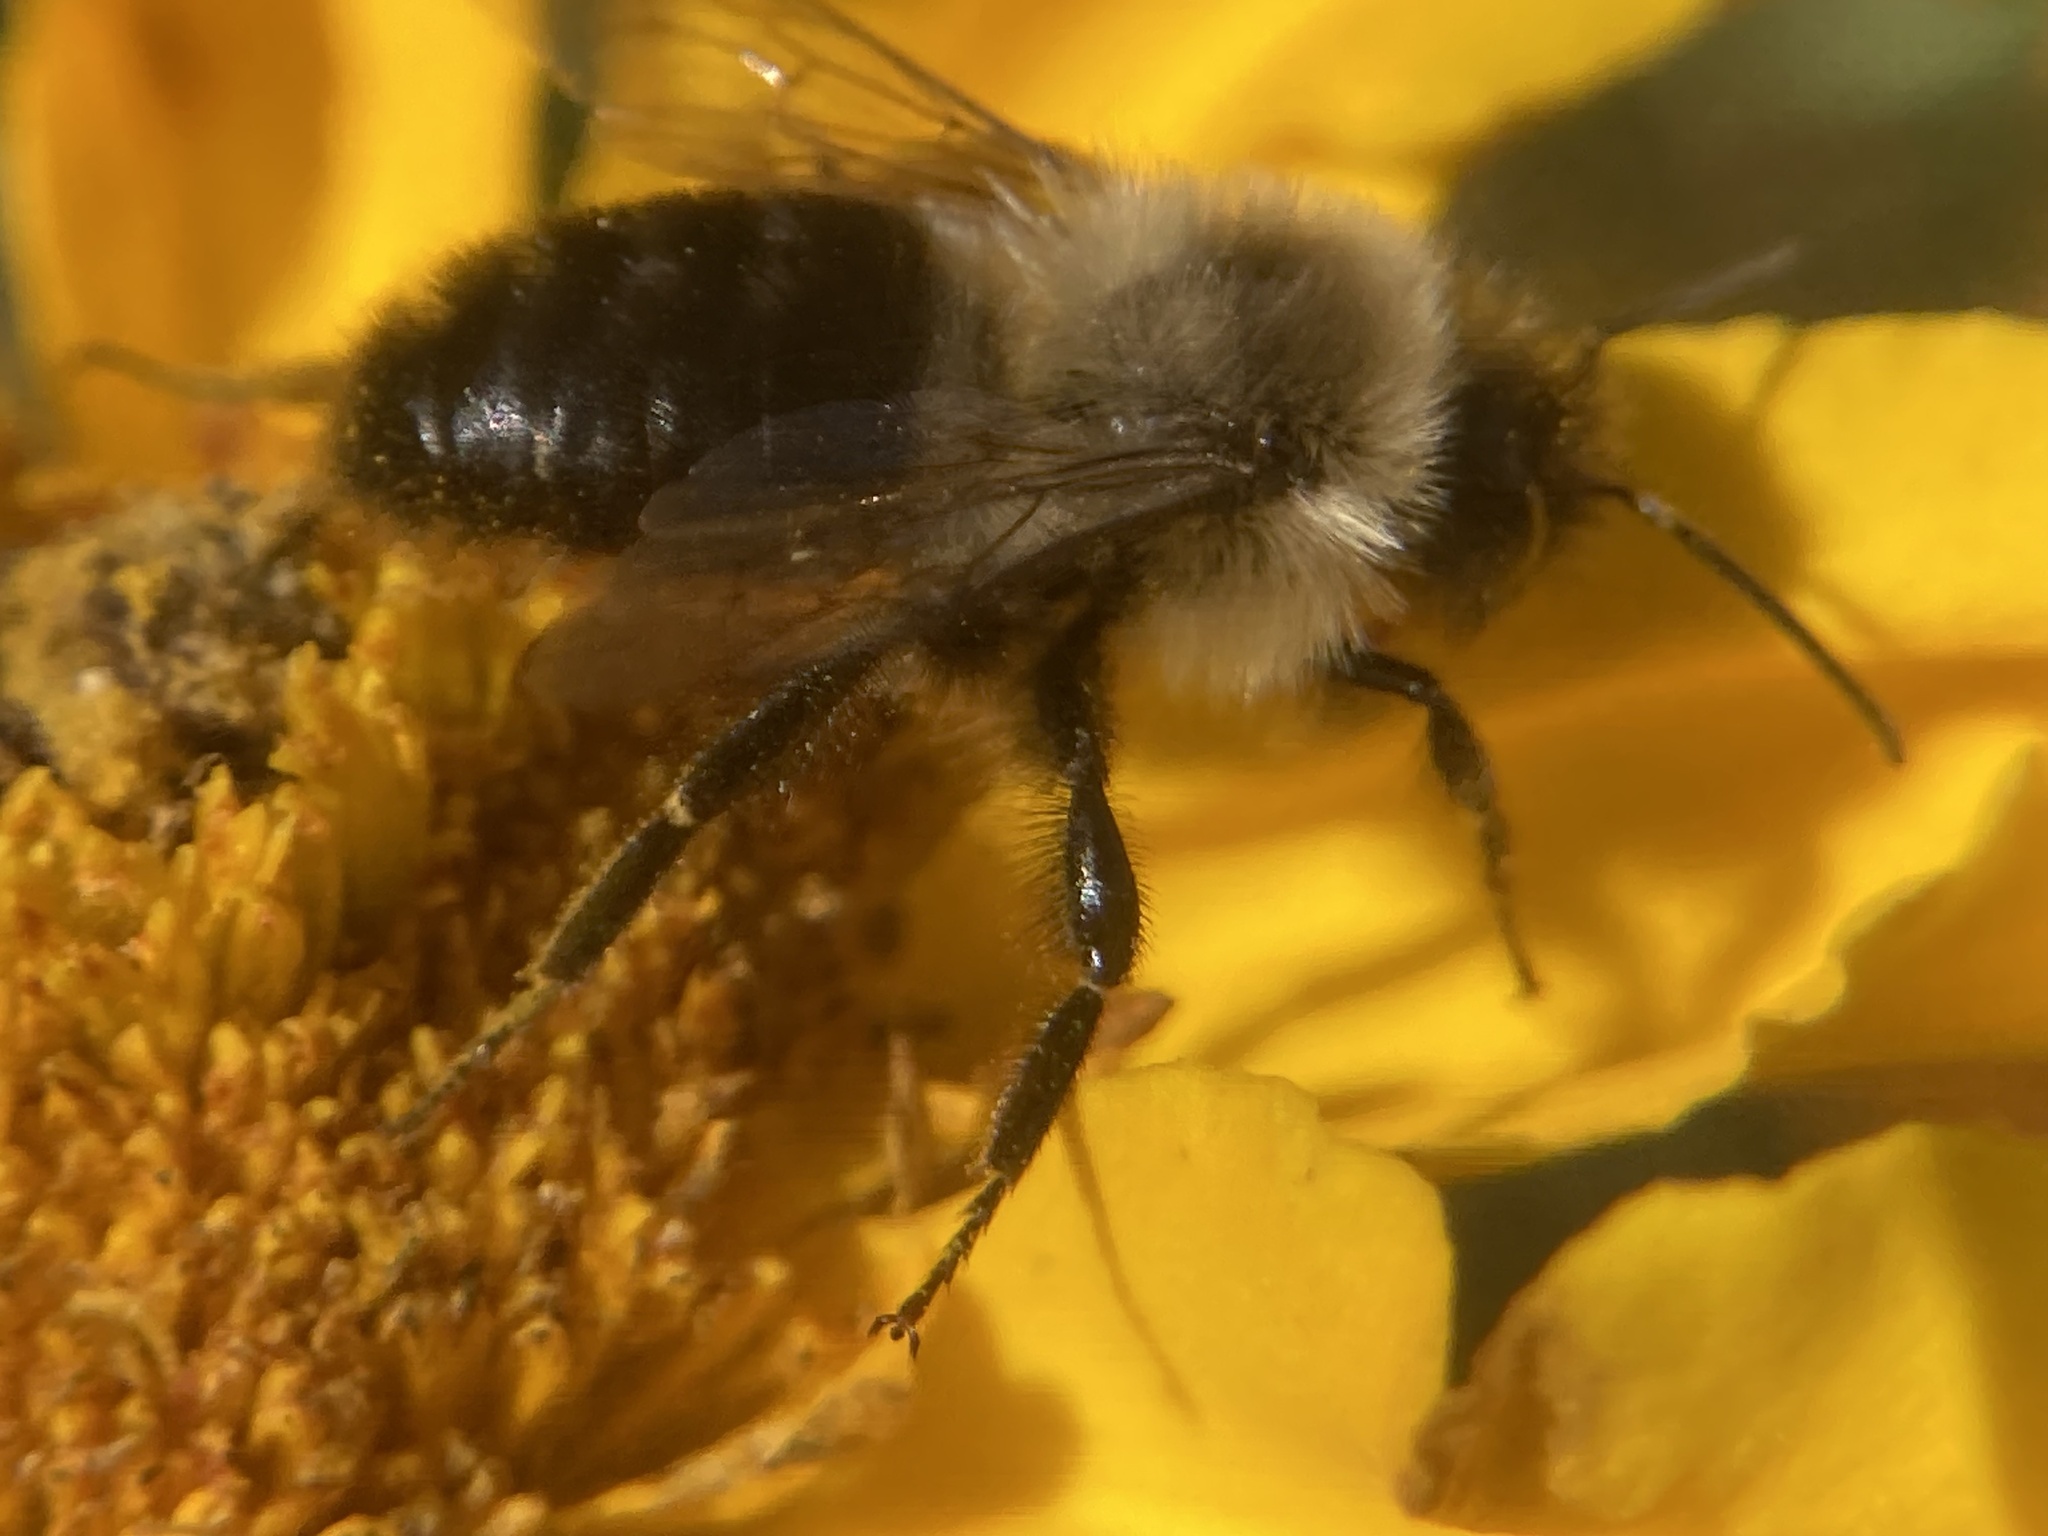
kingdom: Animalia
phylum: Arthropoda
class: Insecta
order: Hymenoptera
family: Apidae
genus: Bombus
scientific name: Bombus impatiens
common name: Common eastern bumble bee
